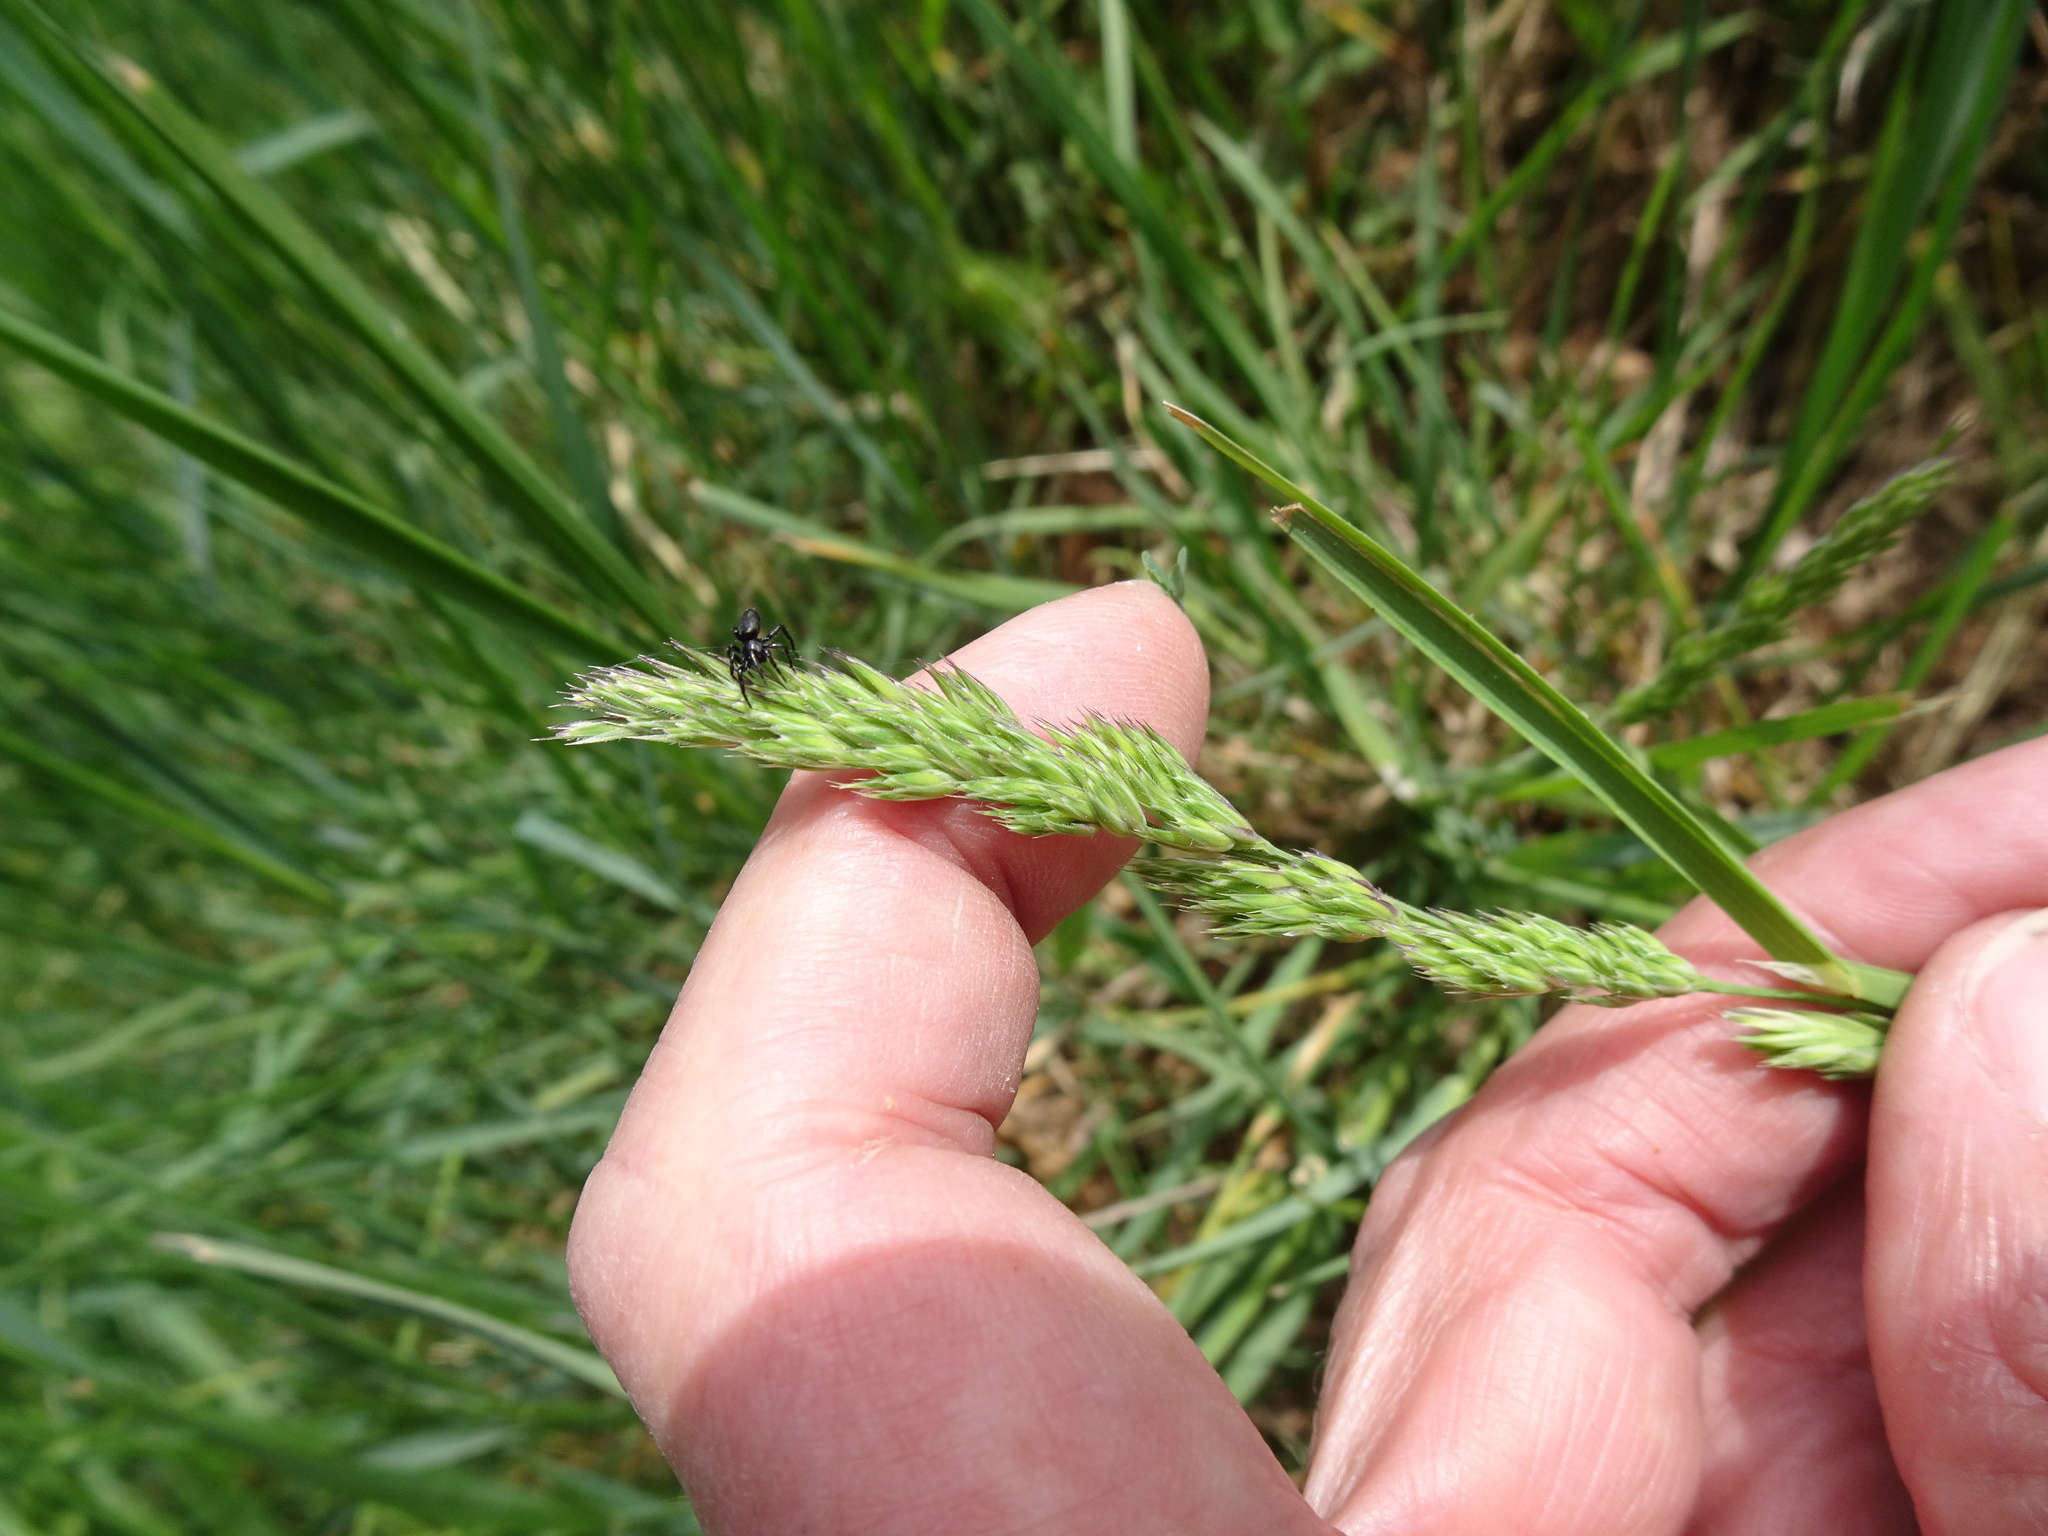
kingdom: Plantae
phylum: Tracheophyta
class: Liliopsida
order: Poales
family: Poaceae
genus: Dactylis
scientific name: Dactylis glomerata
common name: Orchardgrass
